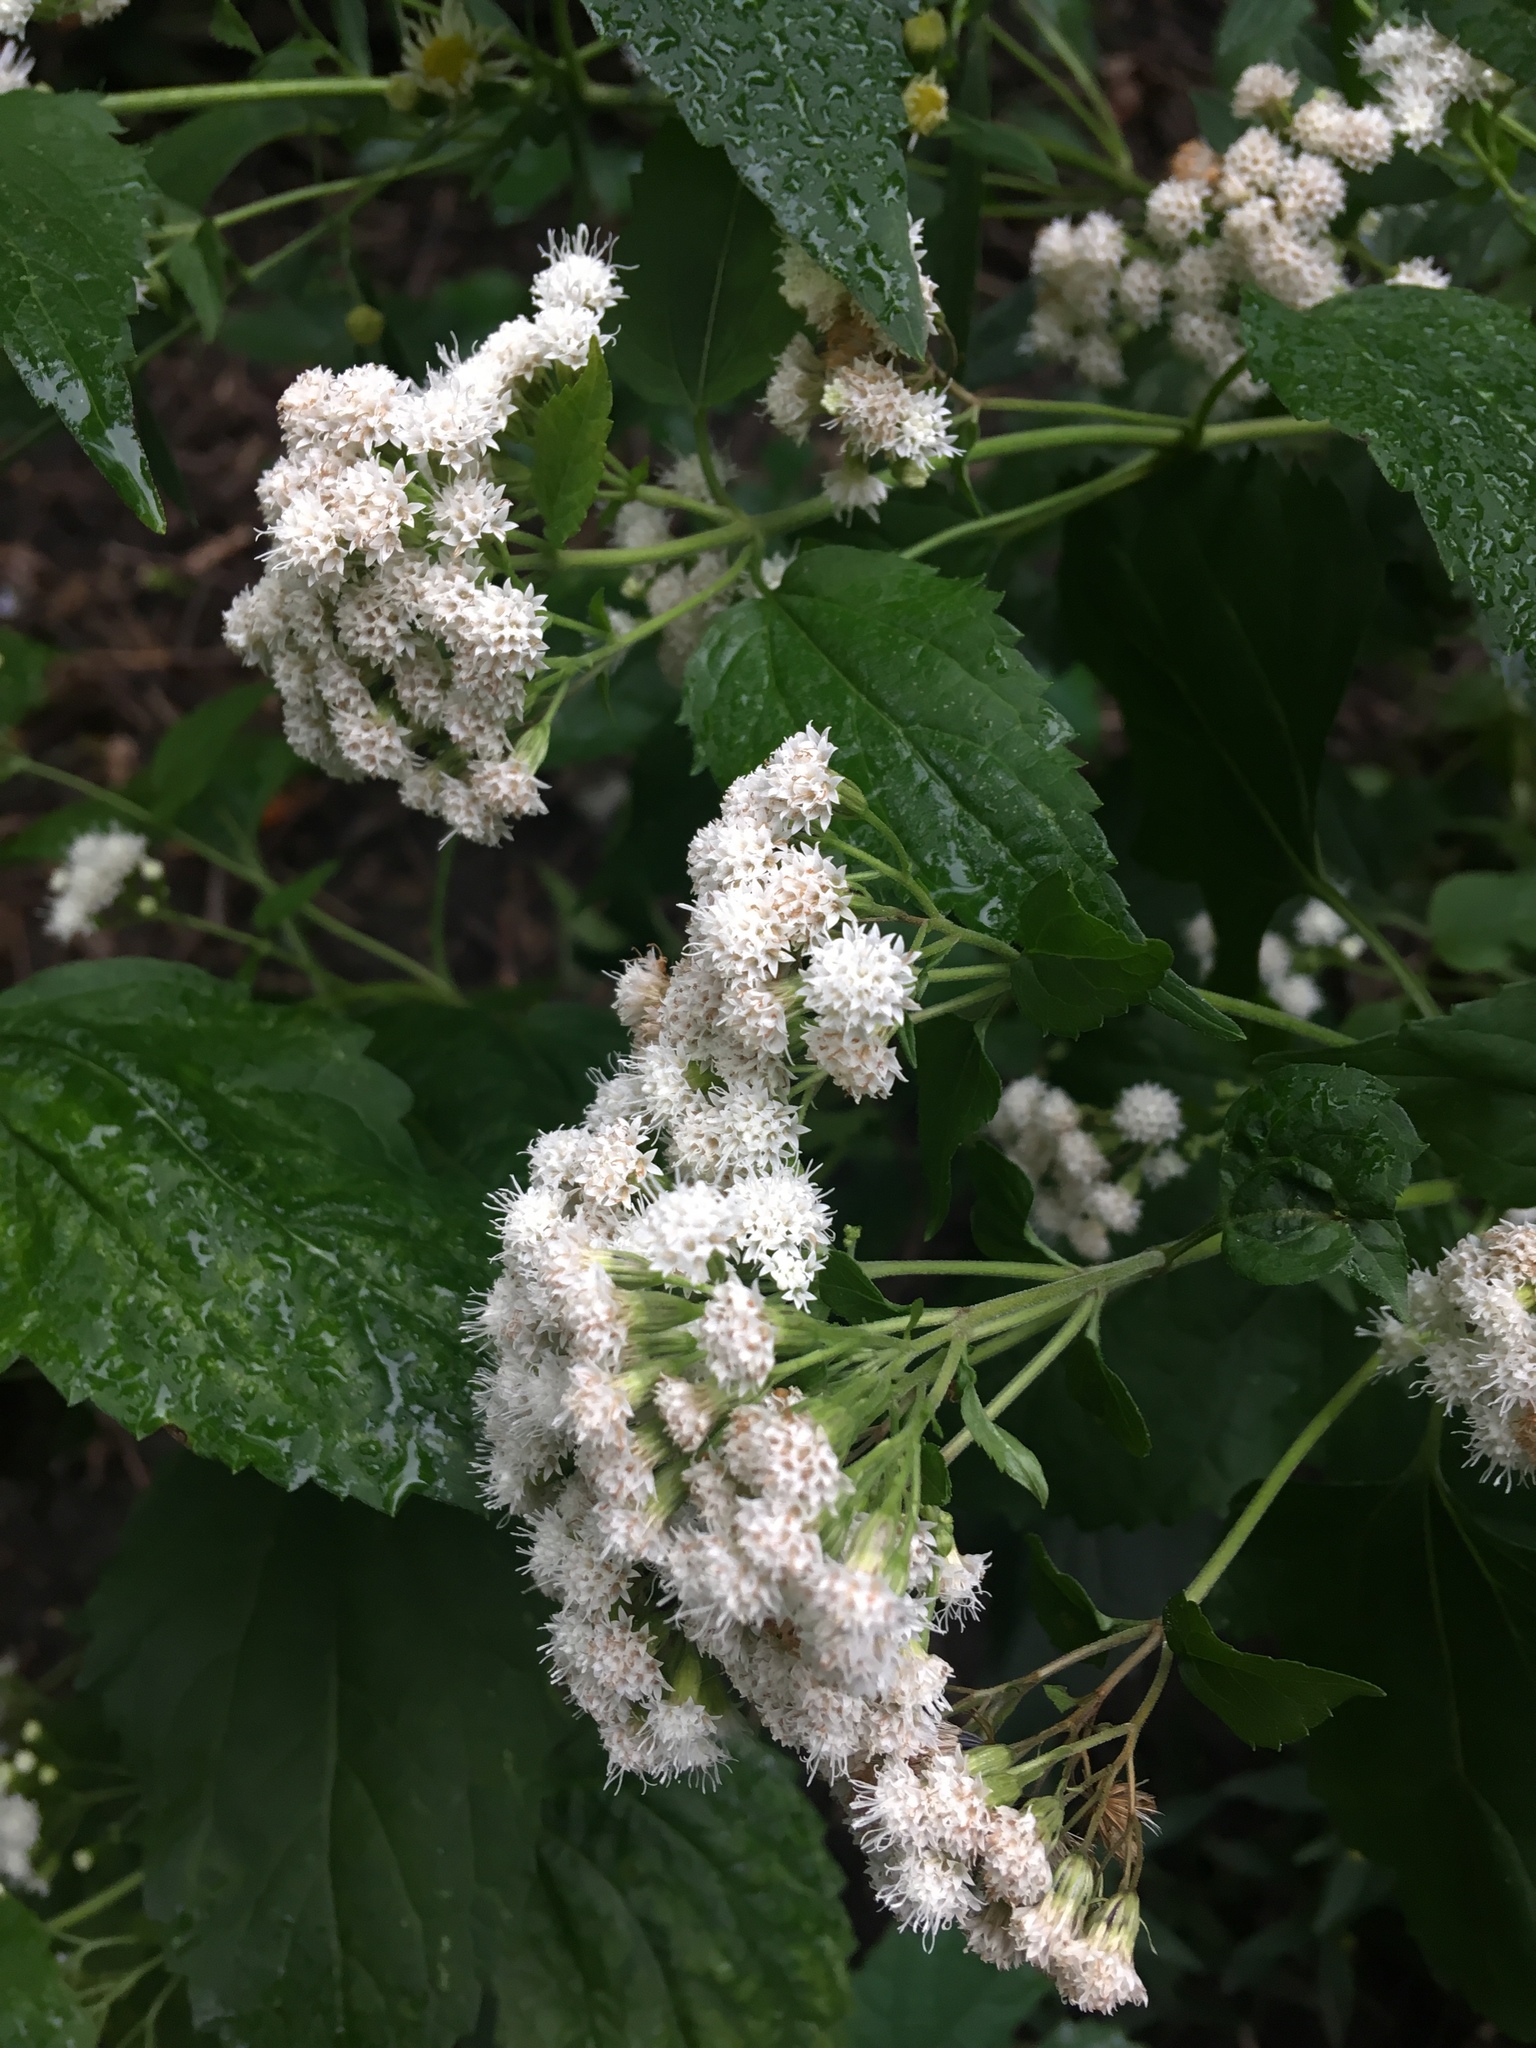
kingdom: Plantae
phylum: Tracheophyta
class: Magnoliopsida
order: Asterales
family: Asteraceae
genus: Ageratina
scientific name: Ageratina altissima
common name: White snakeroot
